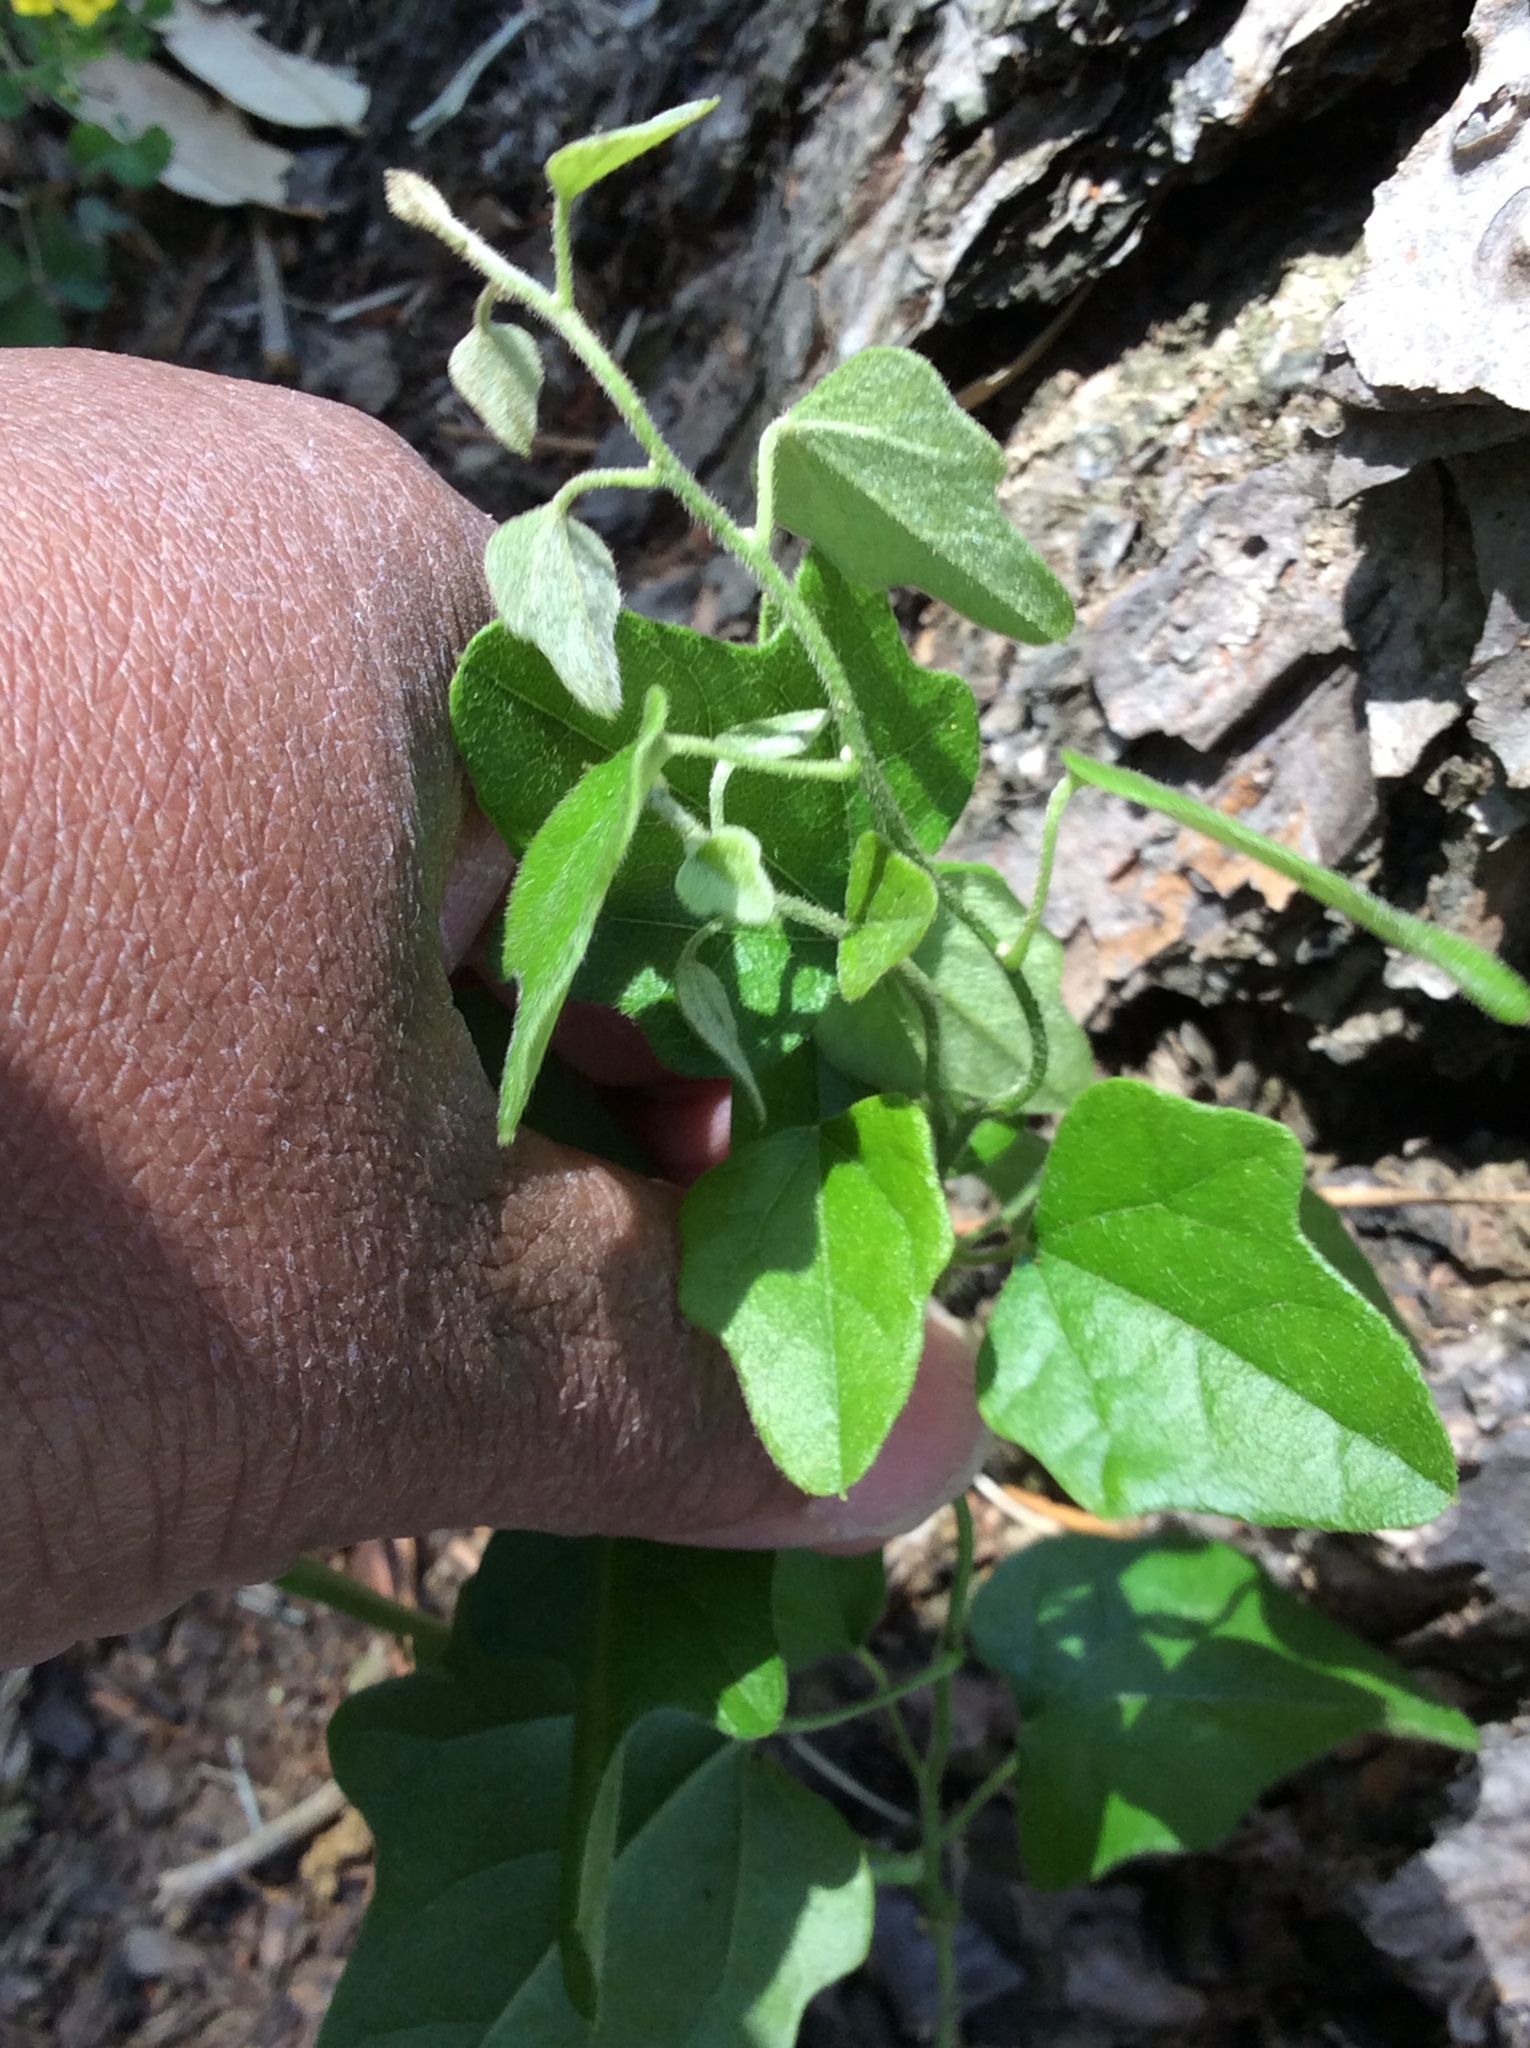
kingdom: Plantae
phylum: Tracheophyta
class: Magnoliopsida
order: Ranunculales
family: Menispermaceae
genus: Cocculus
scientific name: Cocculus carolinus
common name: Carolina moonseed
